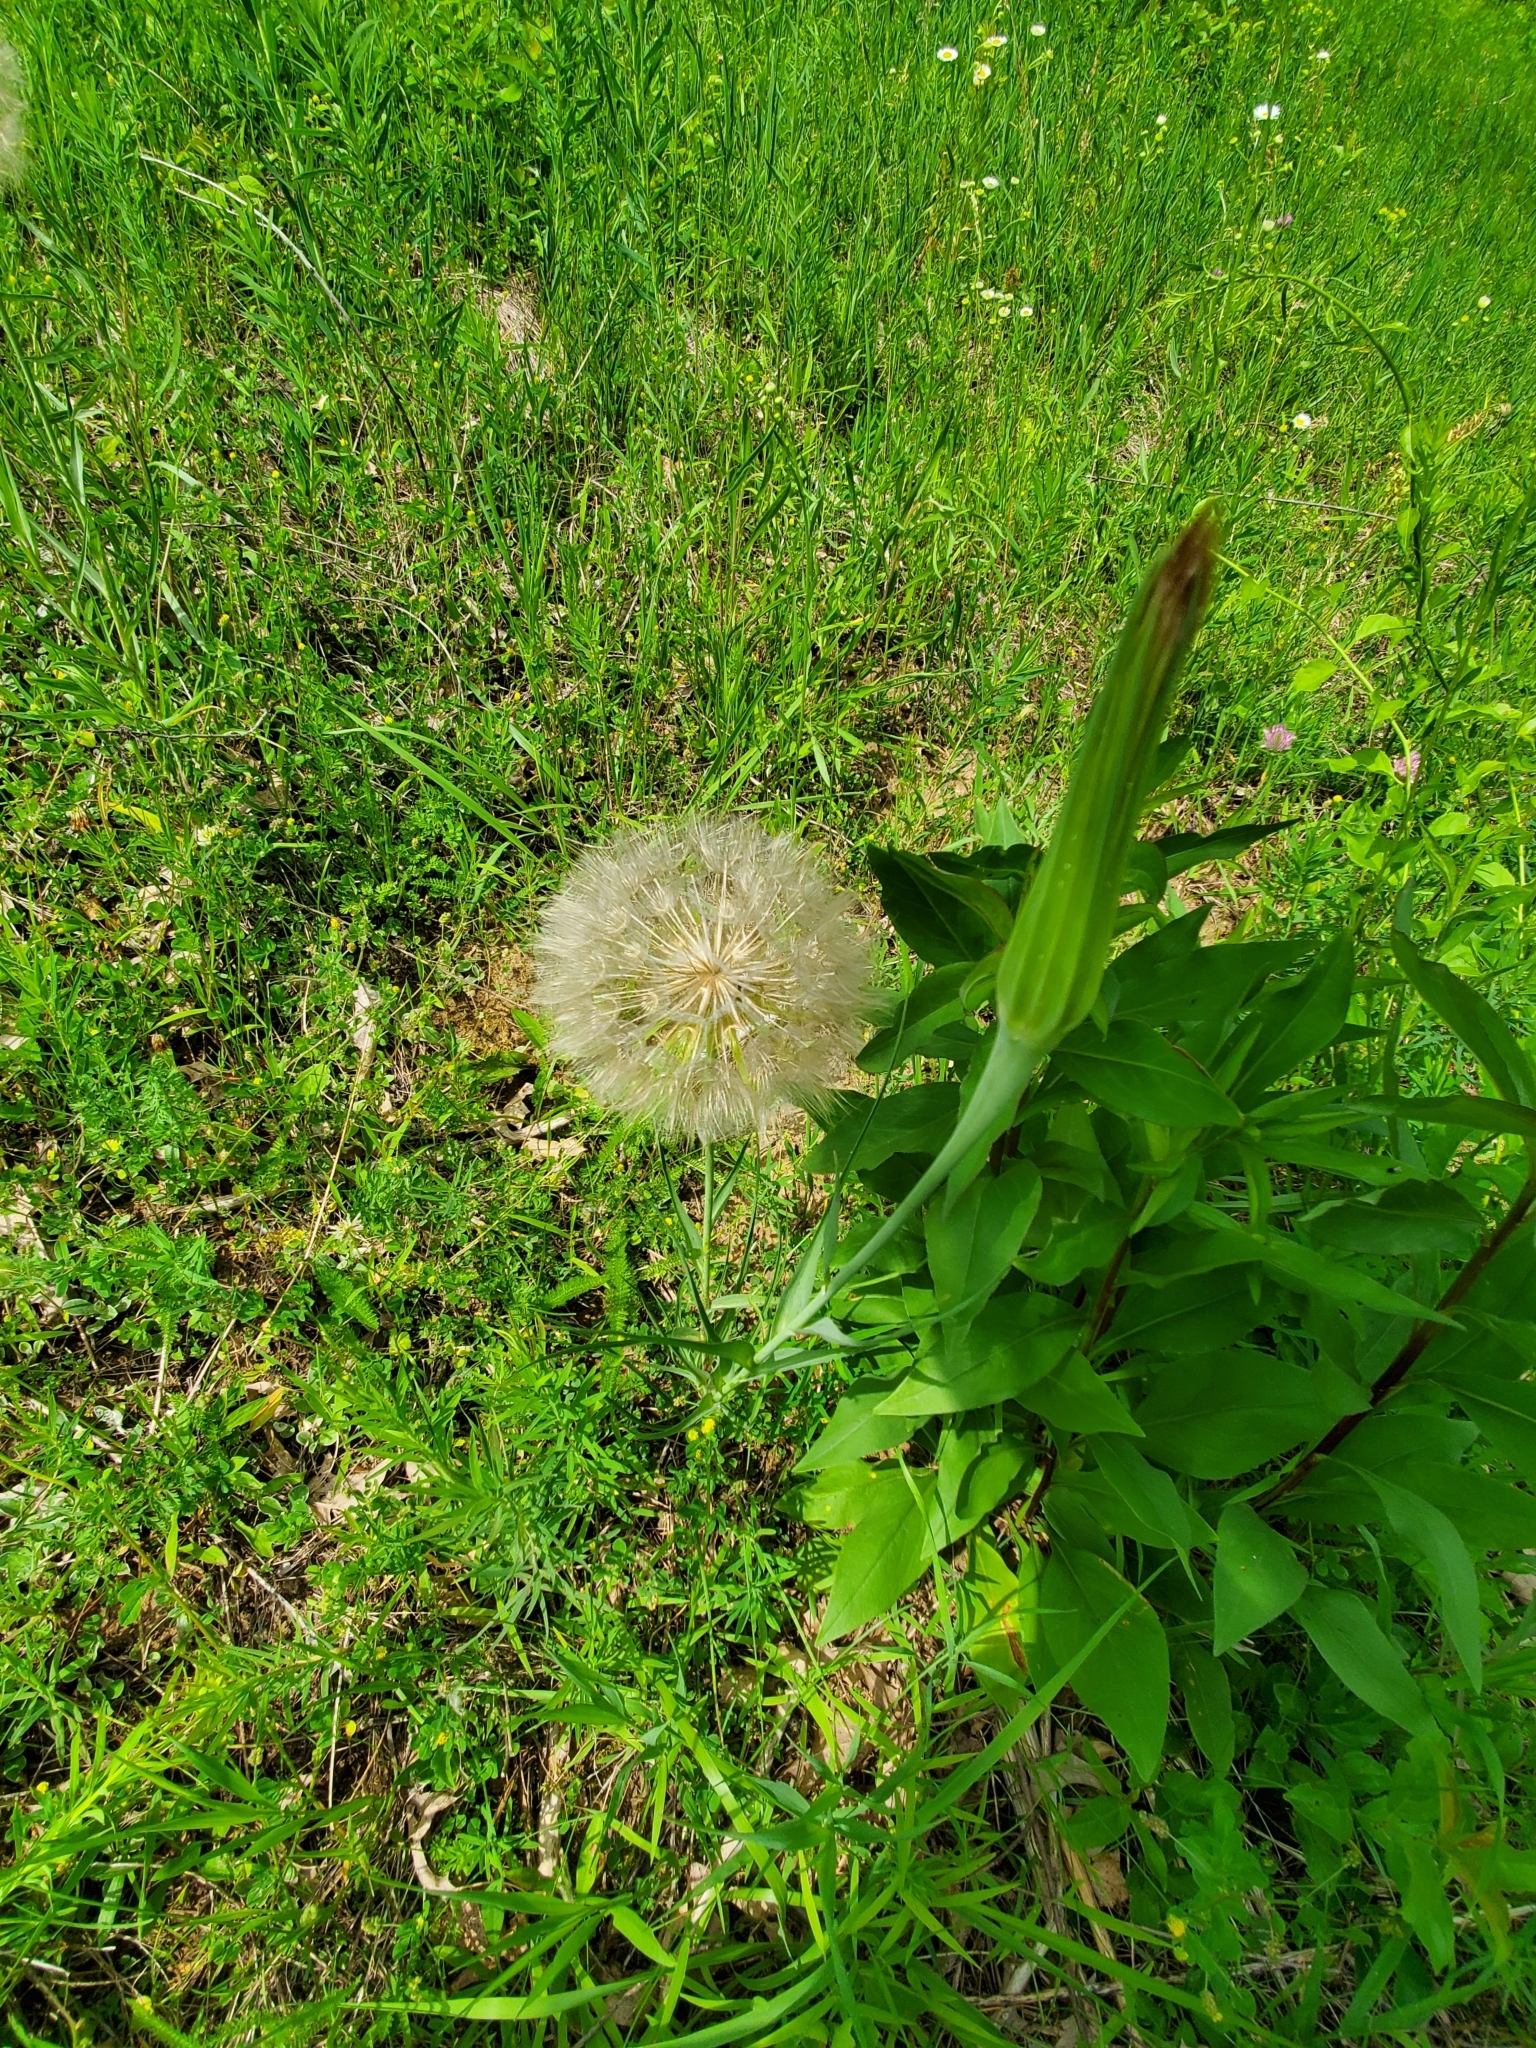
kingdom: Plantae
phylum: Tracheophyta
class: Magnoliopsida
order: Asterales
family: Asteraceae
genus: Tragopogon
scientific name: Tragopogon dubius
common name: Yellow salsify
